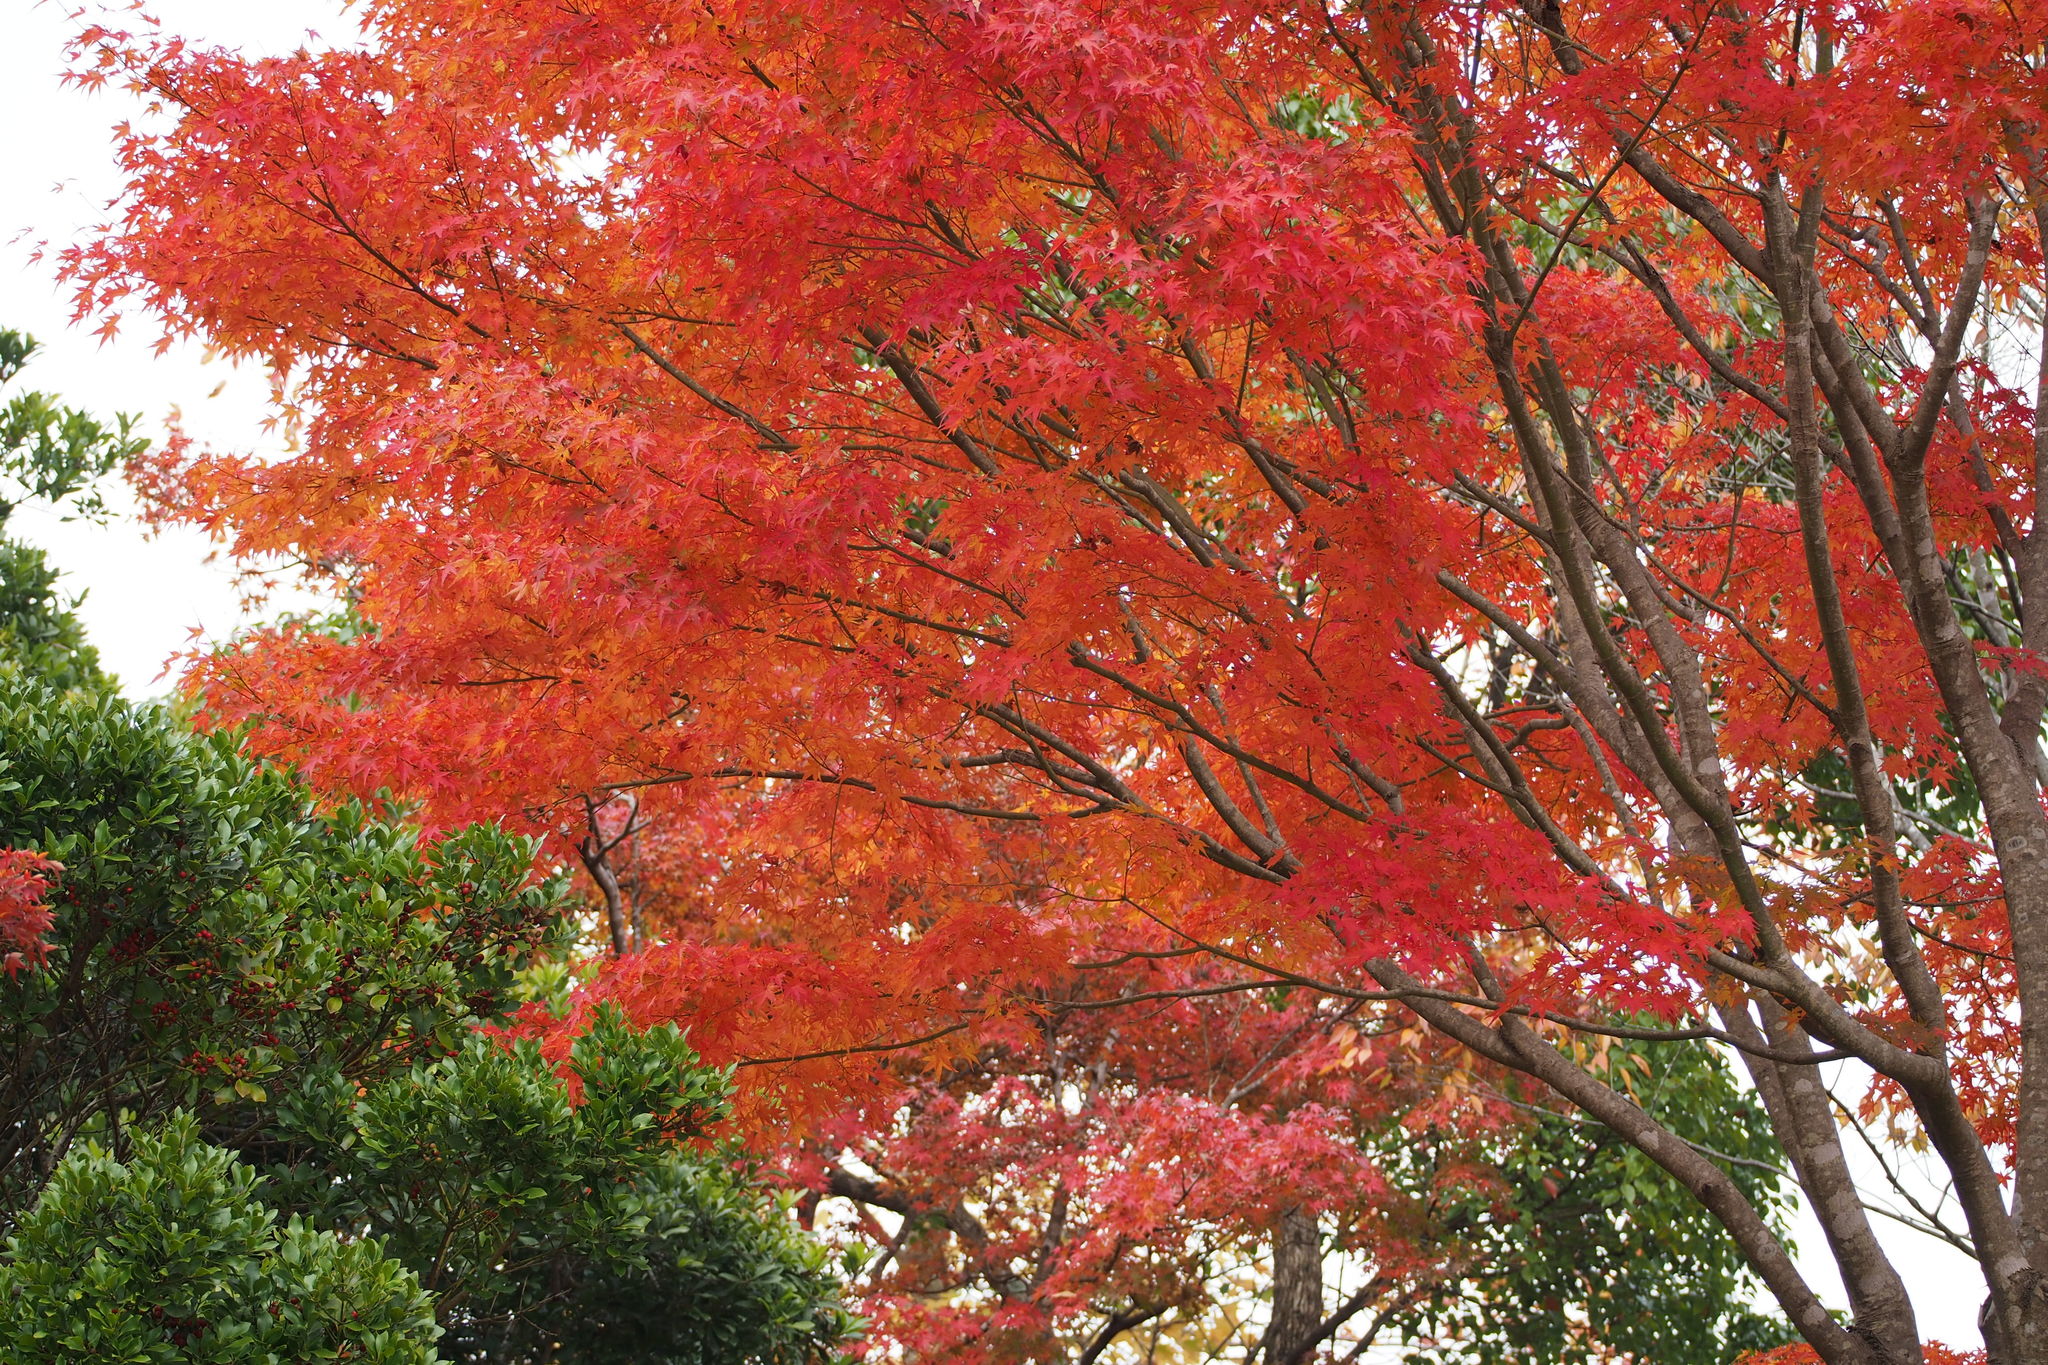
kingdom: Plantae
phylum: Tracheophyta
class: Magnoliopsida
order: Sapindales
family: Sapindaceae
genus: Acer
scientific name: Acer palmatum
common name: Japanese maple
